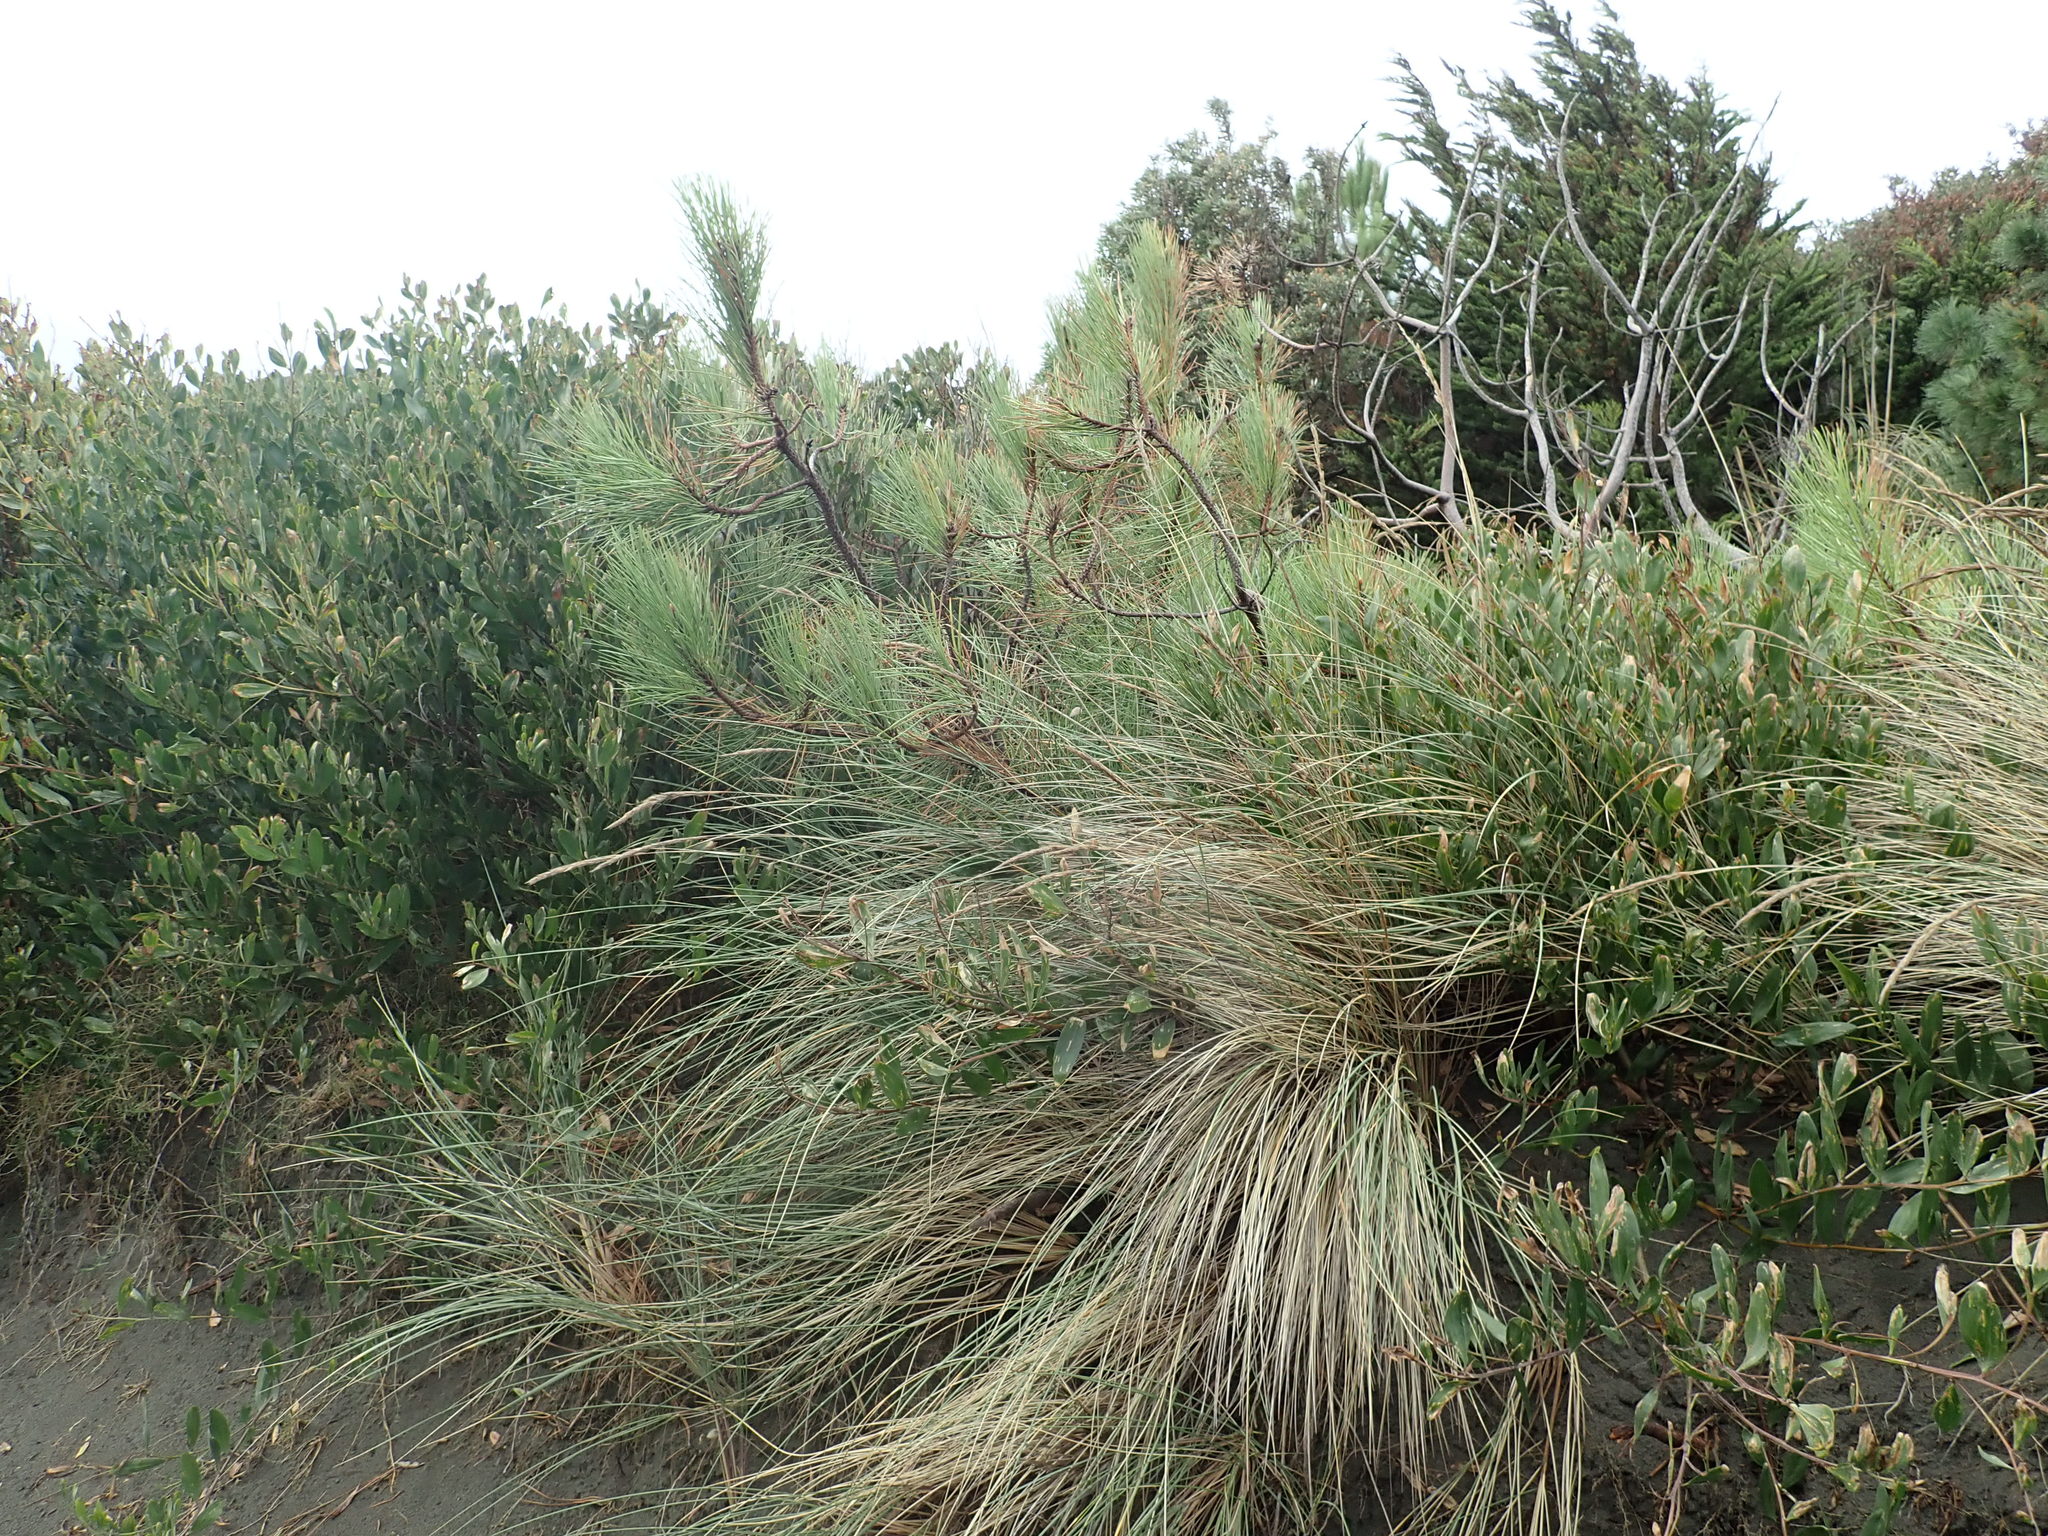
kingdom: Plantae
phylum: Tracheophyta
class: Pinopsida
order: Pinales
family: Pinaceae
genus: Pinus
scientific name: Pinus pinaster
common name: Maritime pine
